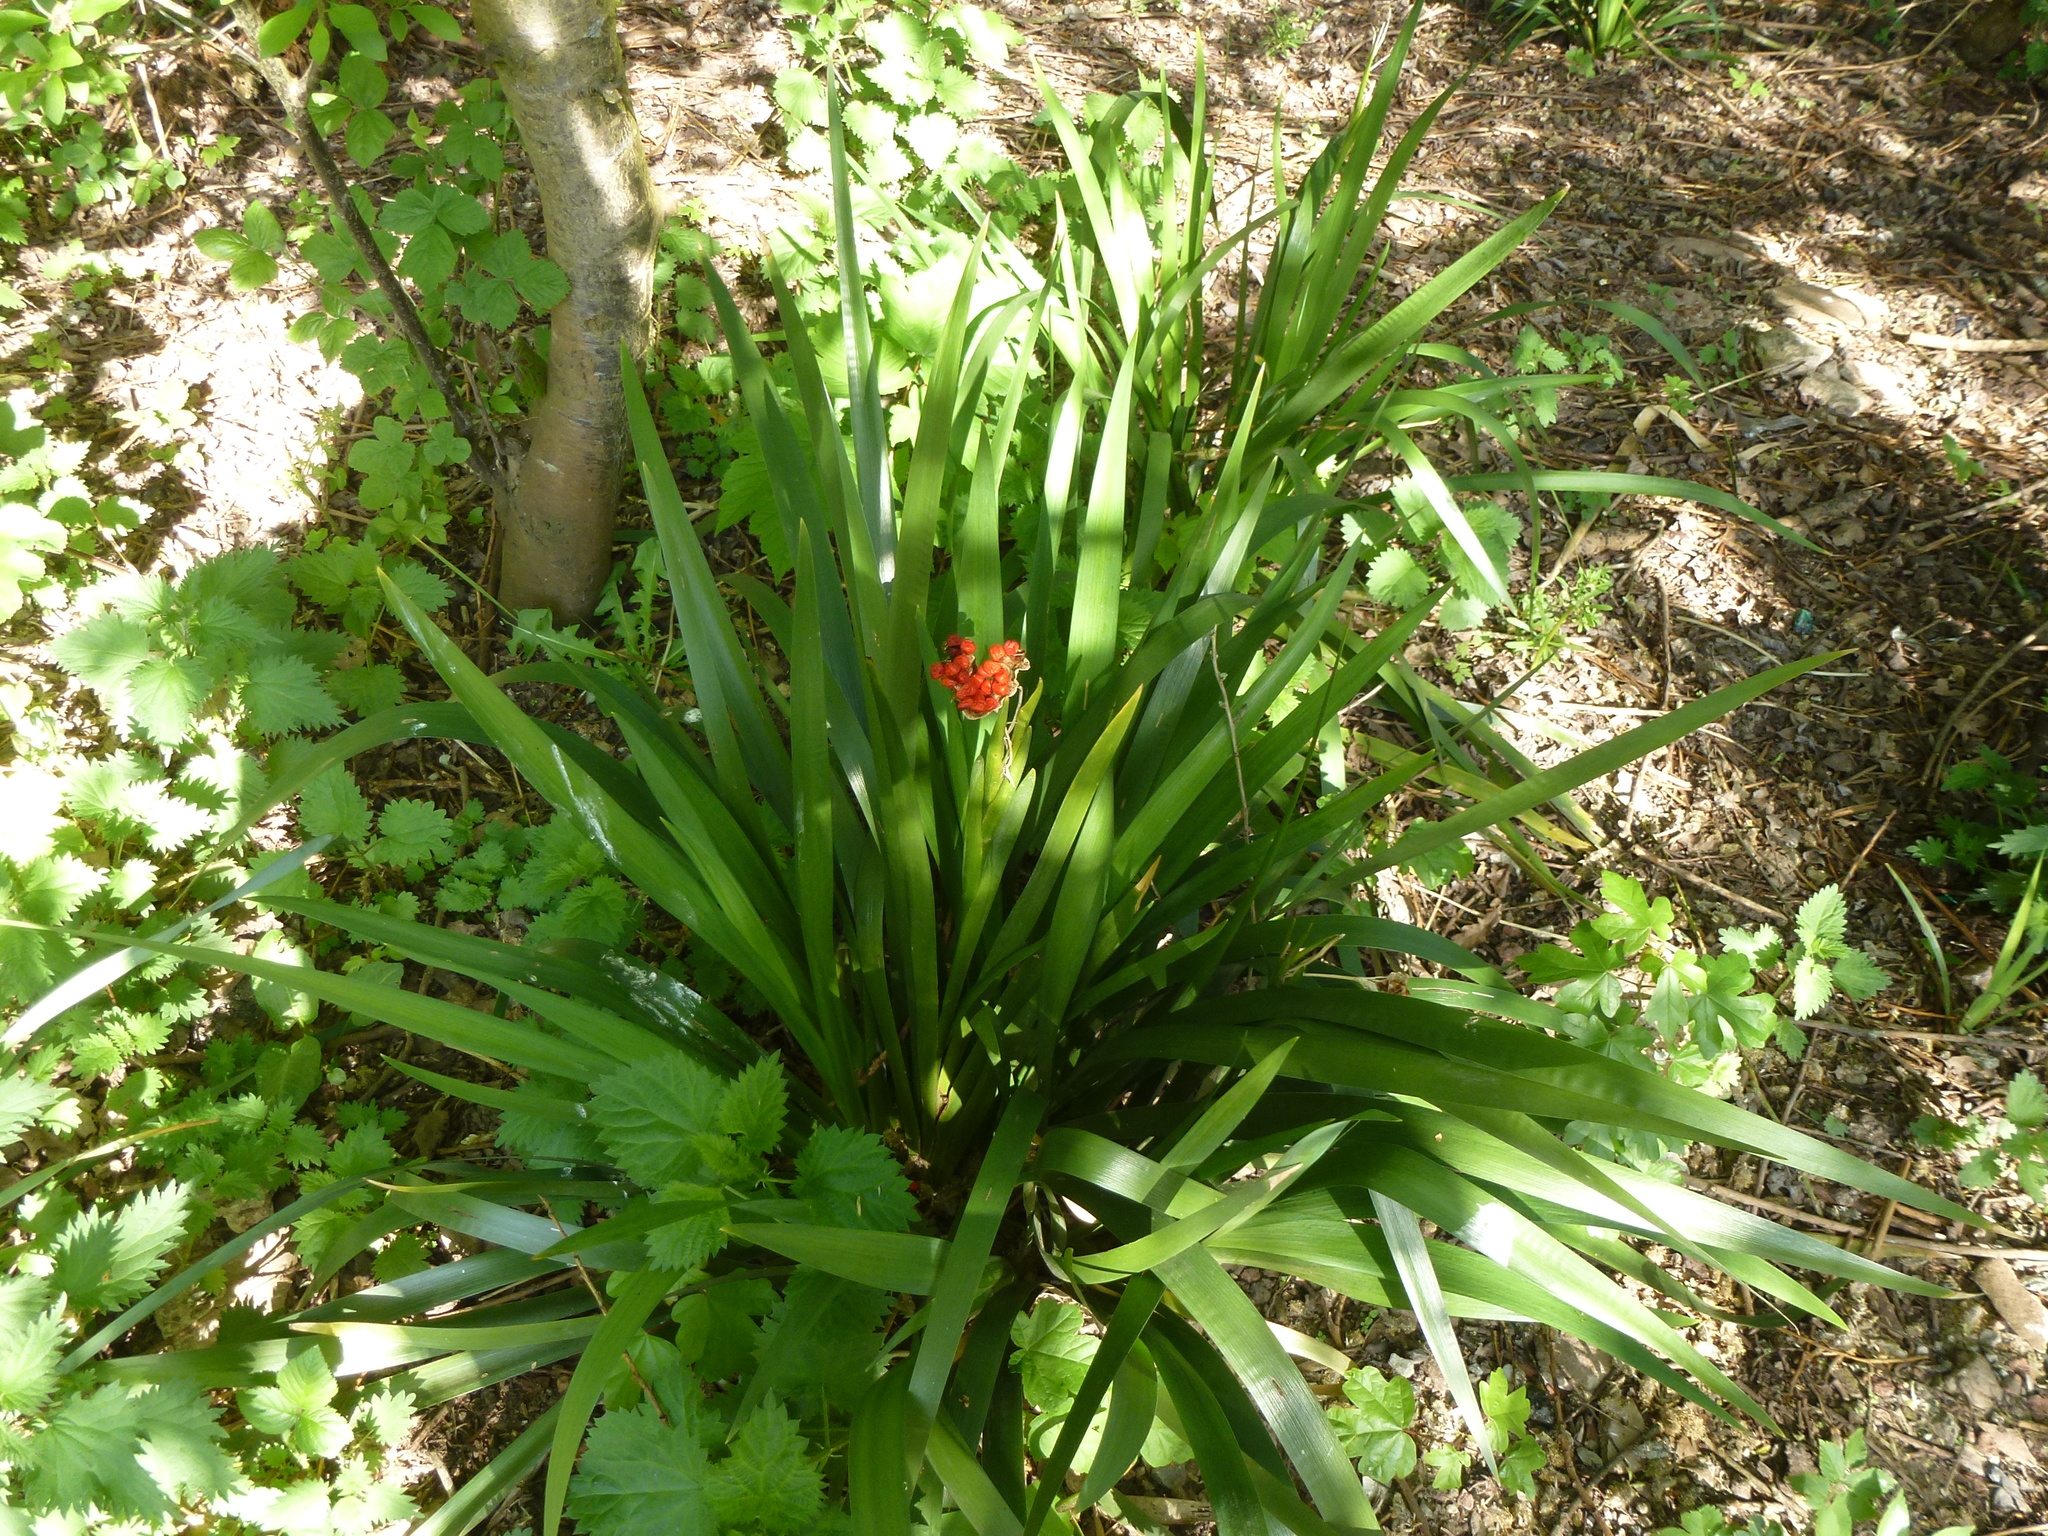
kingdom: Plantae
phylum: Tracheophyta
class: Liliopsida
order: Asparagales
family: Iridaceae
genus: Iris
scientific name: Iris foetidissima
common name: Stinking iris
